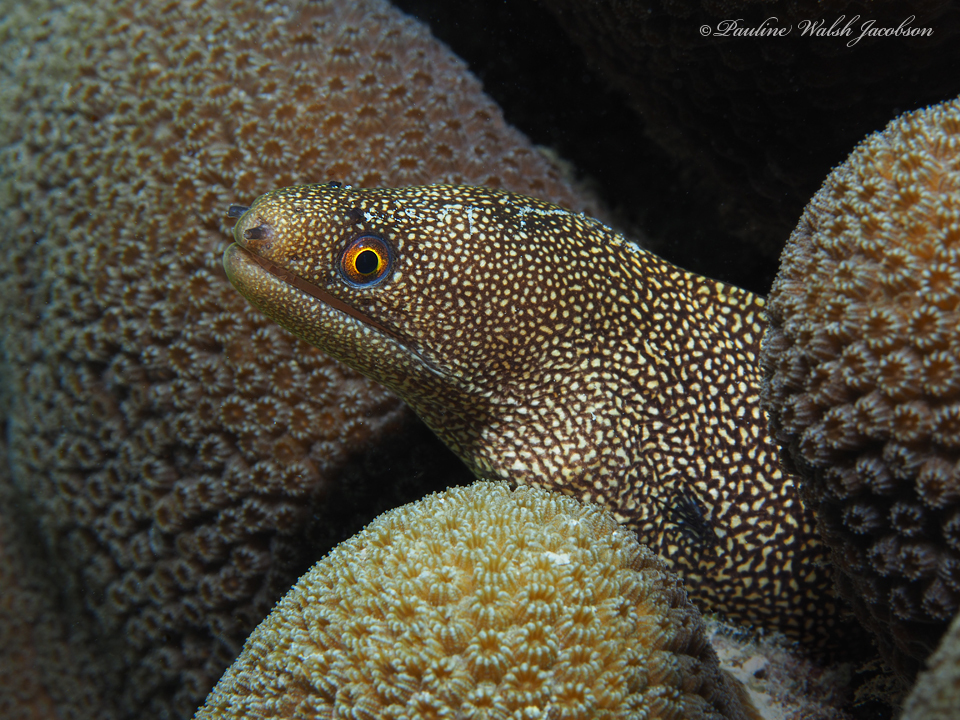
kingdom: Animalia
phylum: Chordata
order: Anguilliformes
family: Muraenidae
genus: Gymnothorax
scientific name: Gymnothorax miliaris
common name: Goldentail moray
